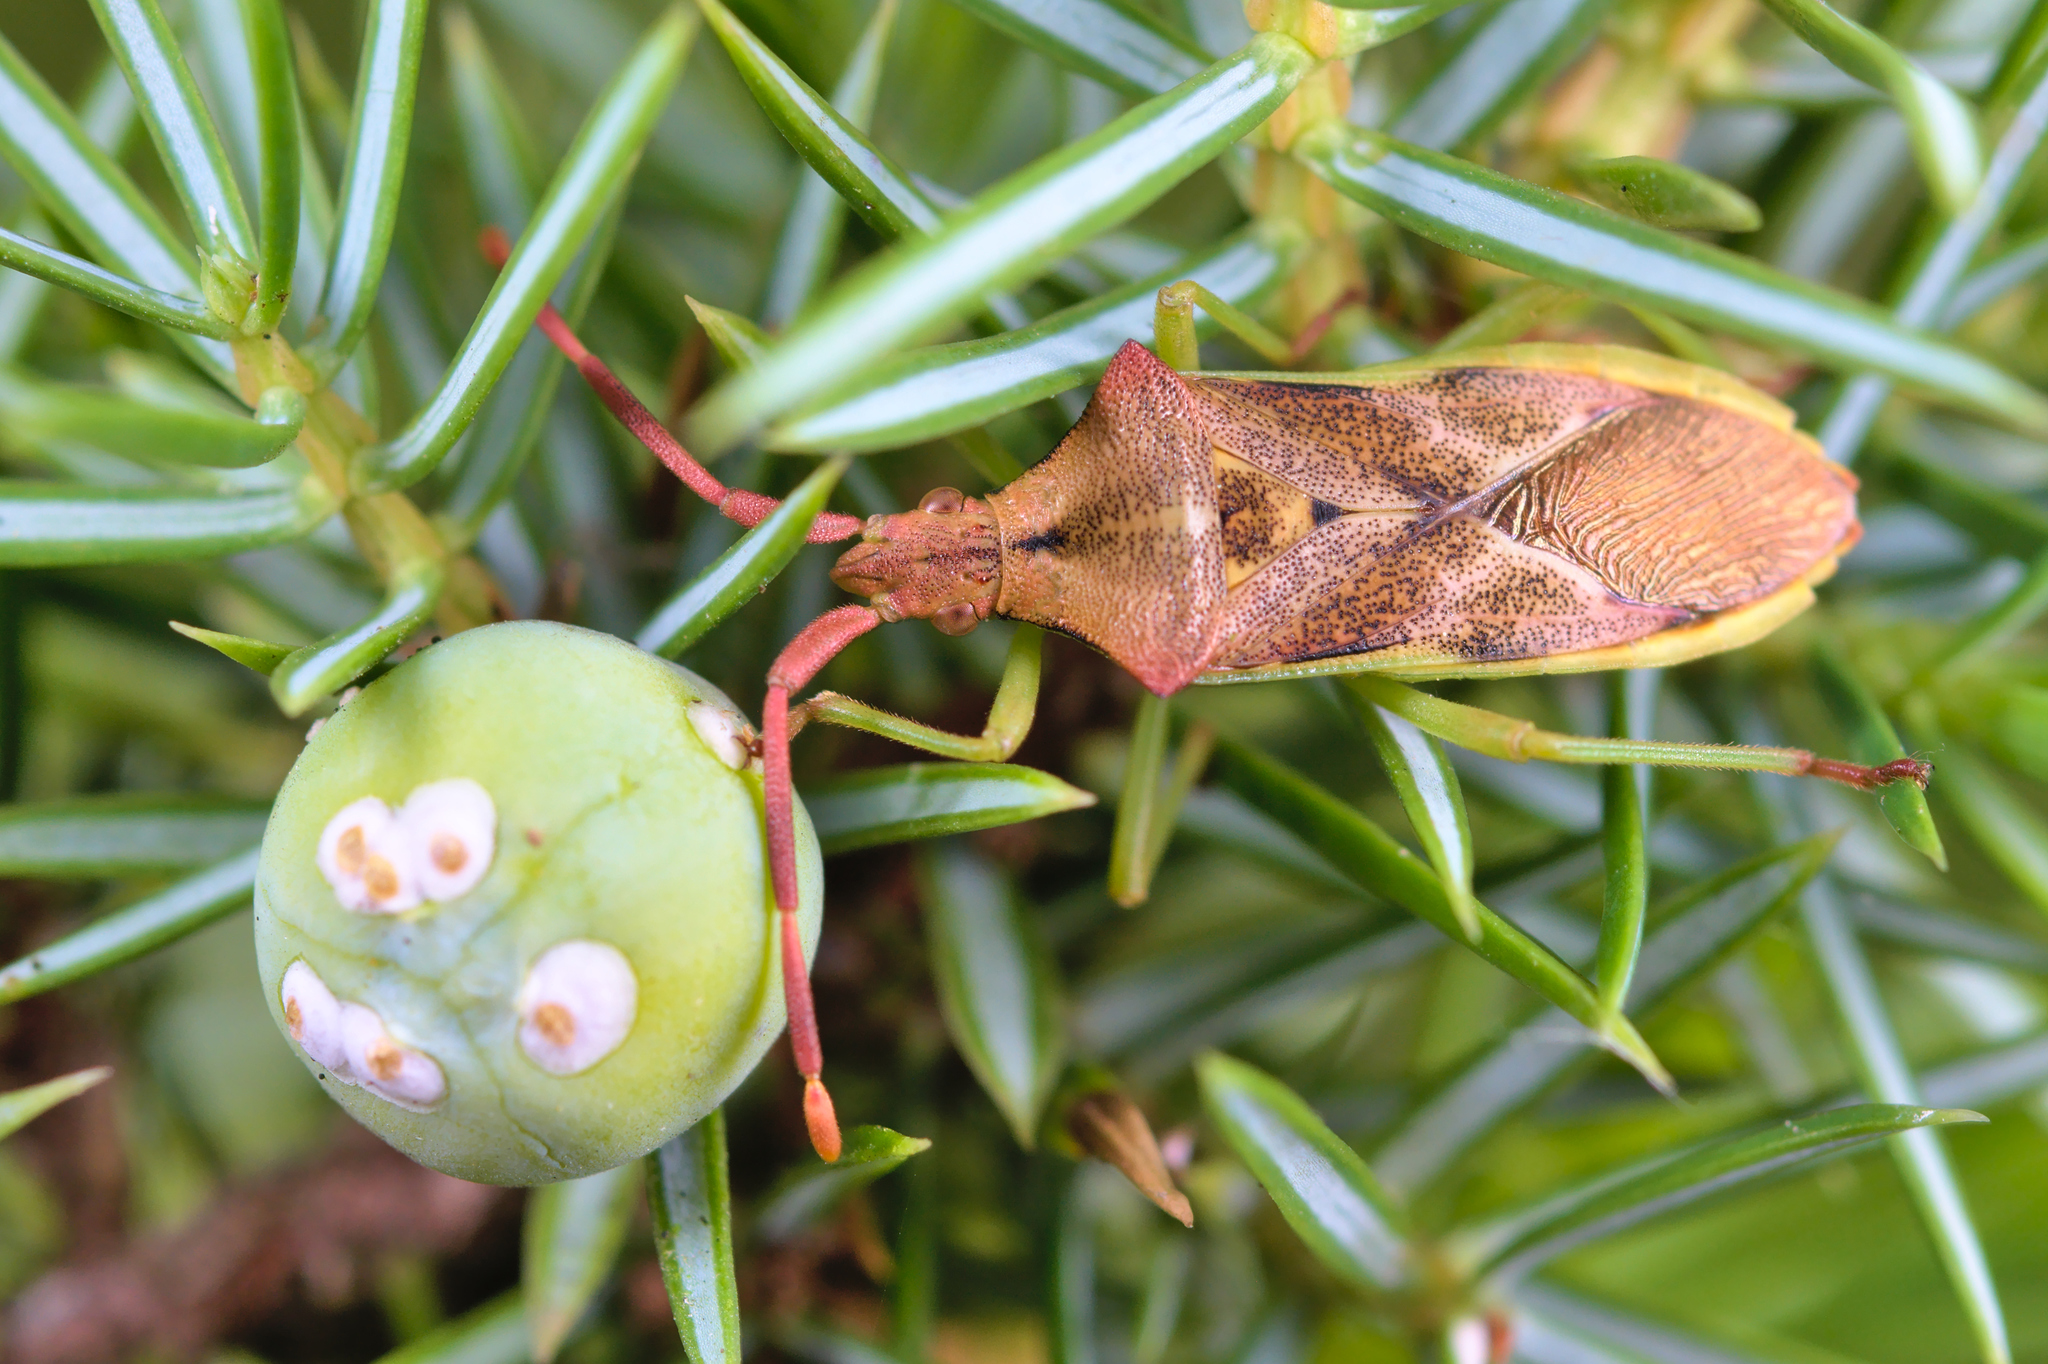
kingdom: Animalia
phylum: Arthropoda
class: Insecta
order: Hemiptera
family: Coreidae
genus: Gonocerus
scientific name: Gonocerus juniperi
